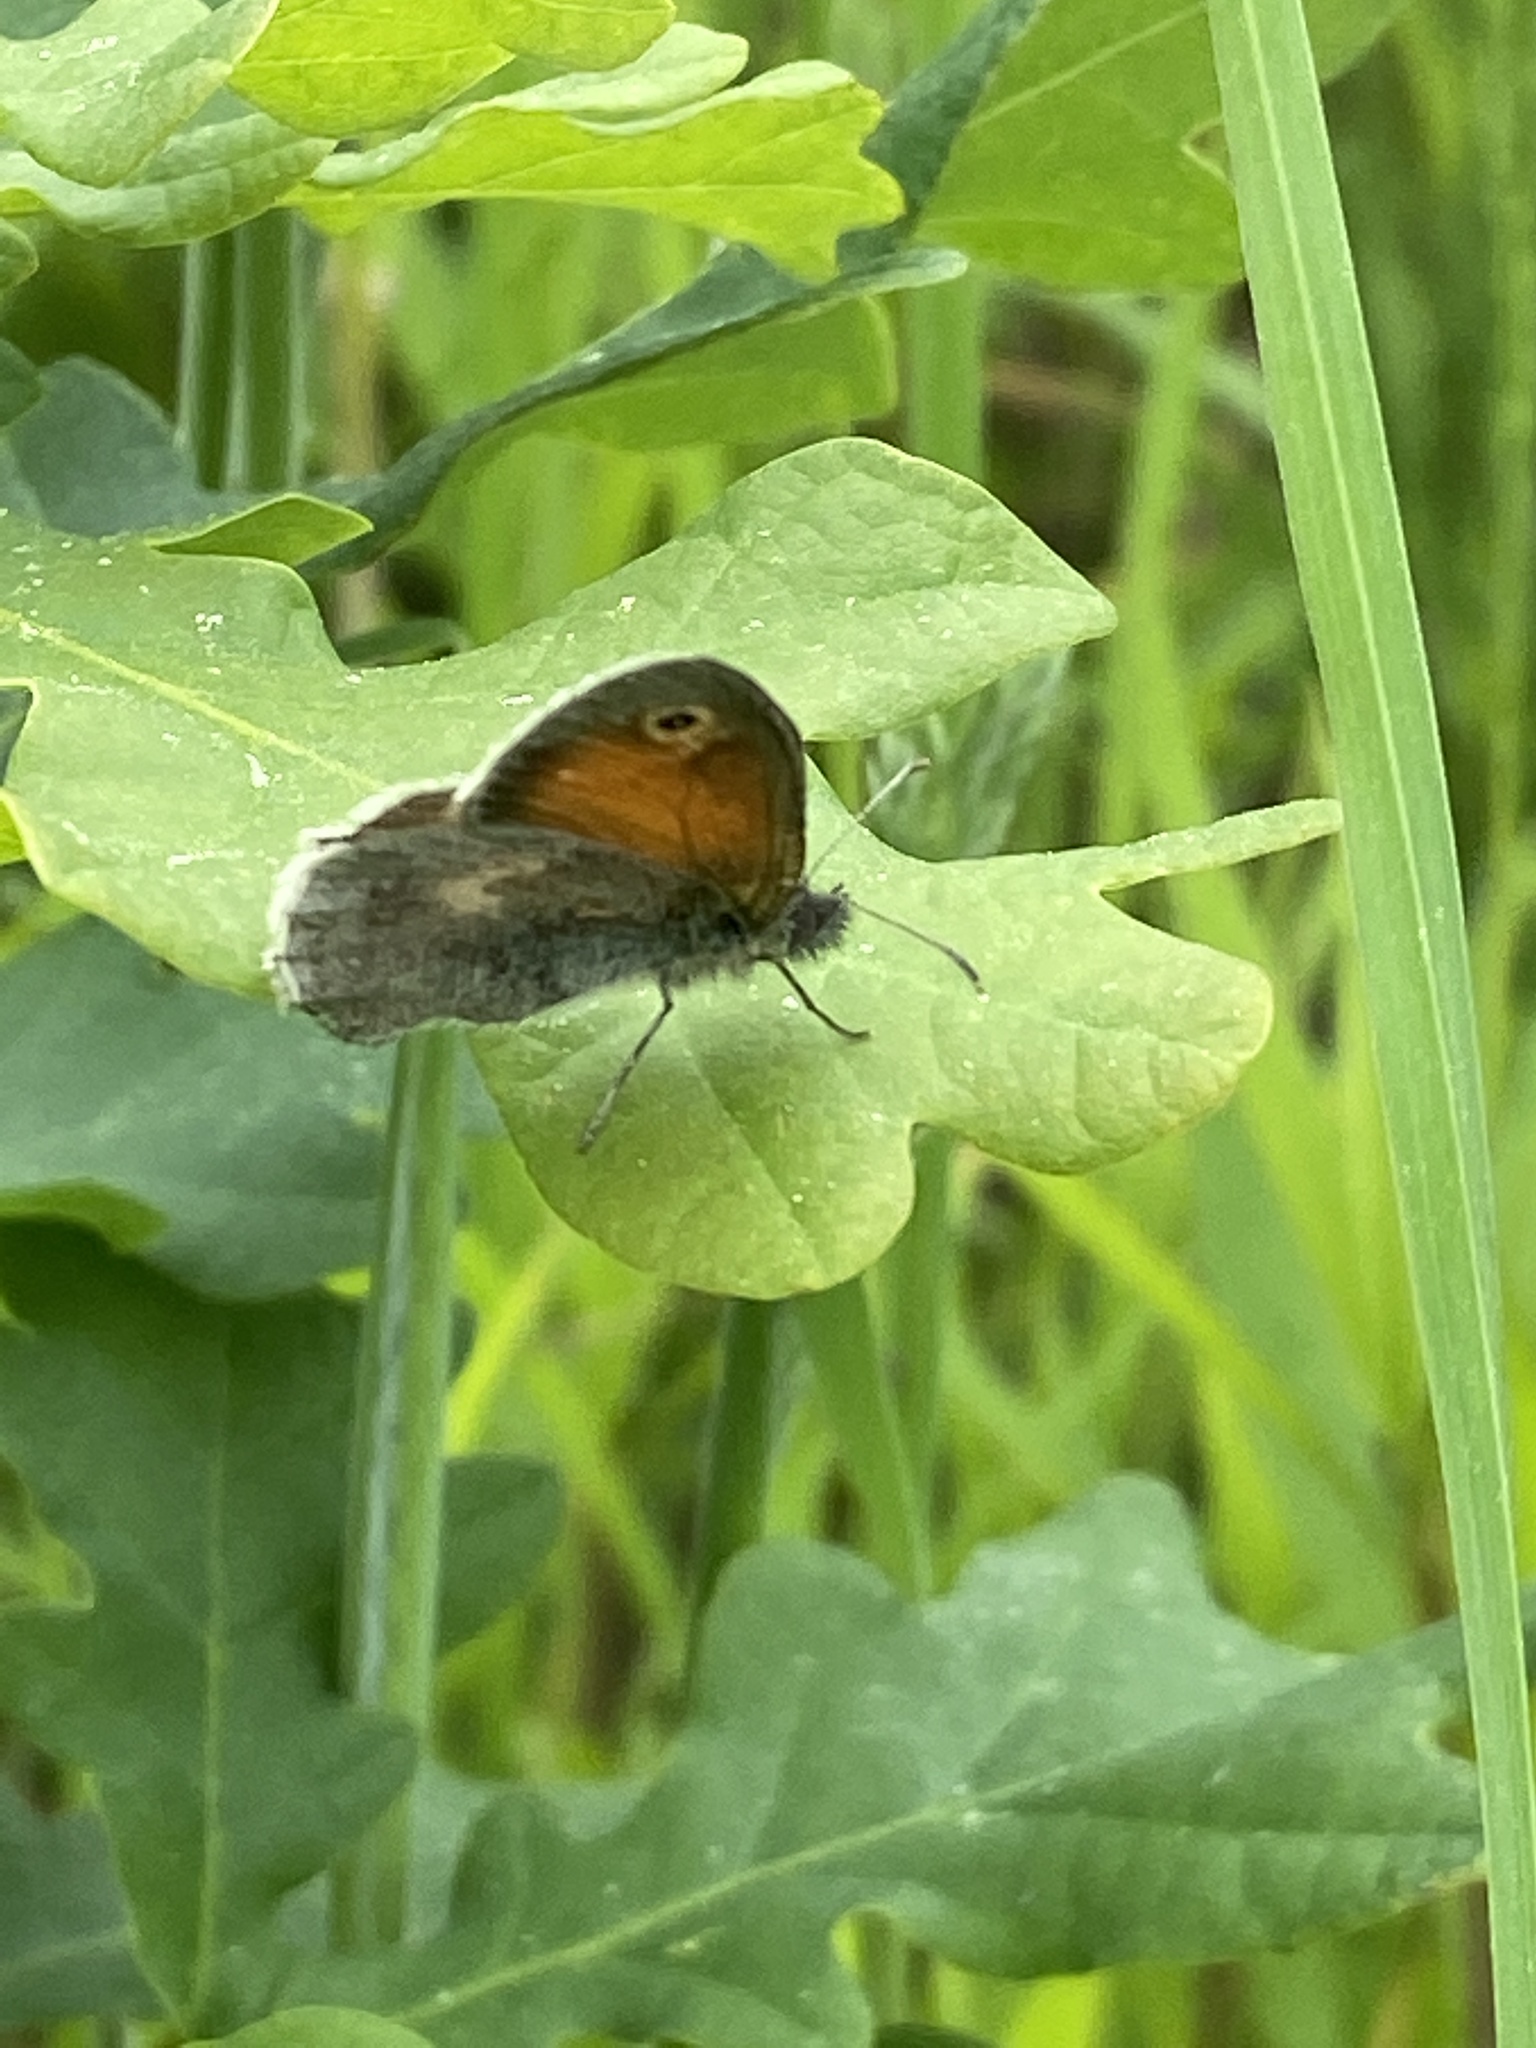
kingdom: Animalia
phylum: Arthropoda
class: Insecta
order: Lepidoptera
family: Nymphalidae
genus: Coenonympha
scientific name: Coenonympha pamphilus
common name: Small heath
